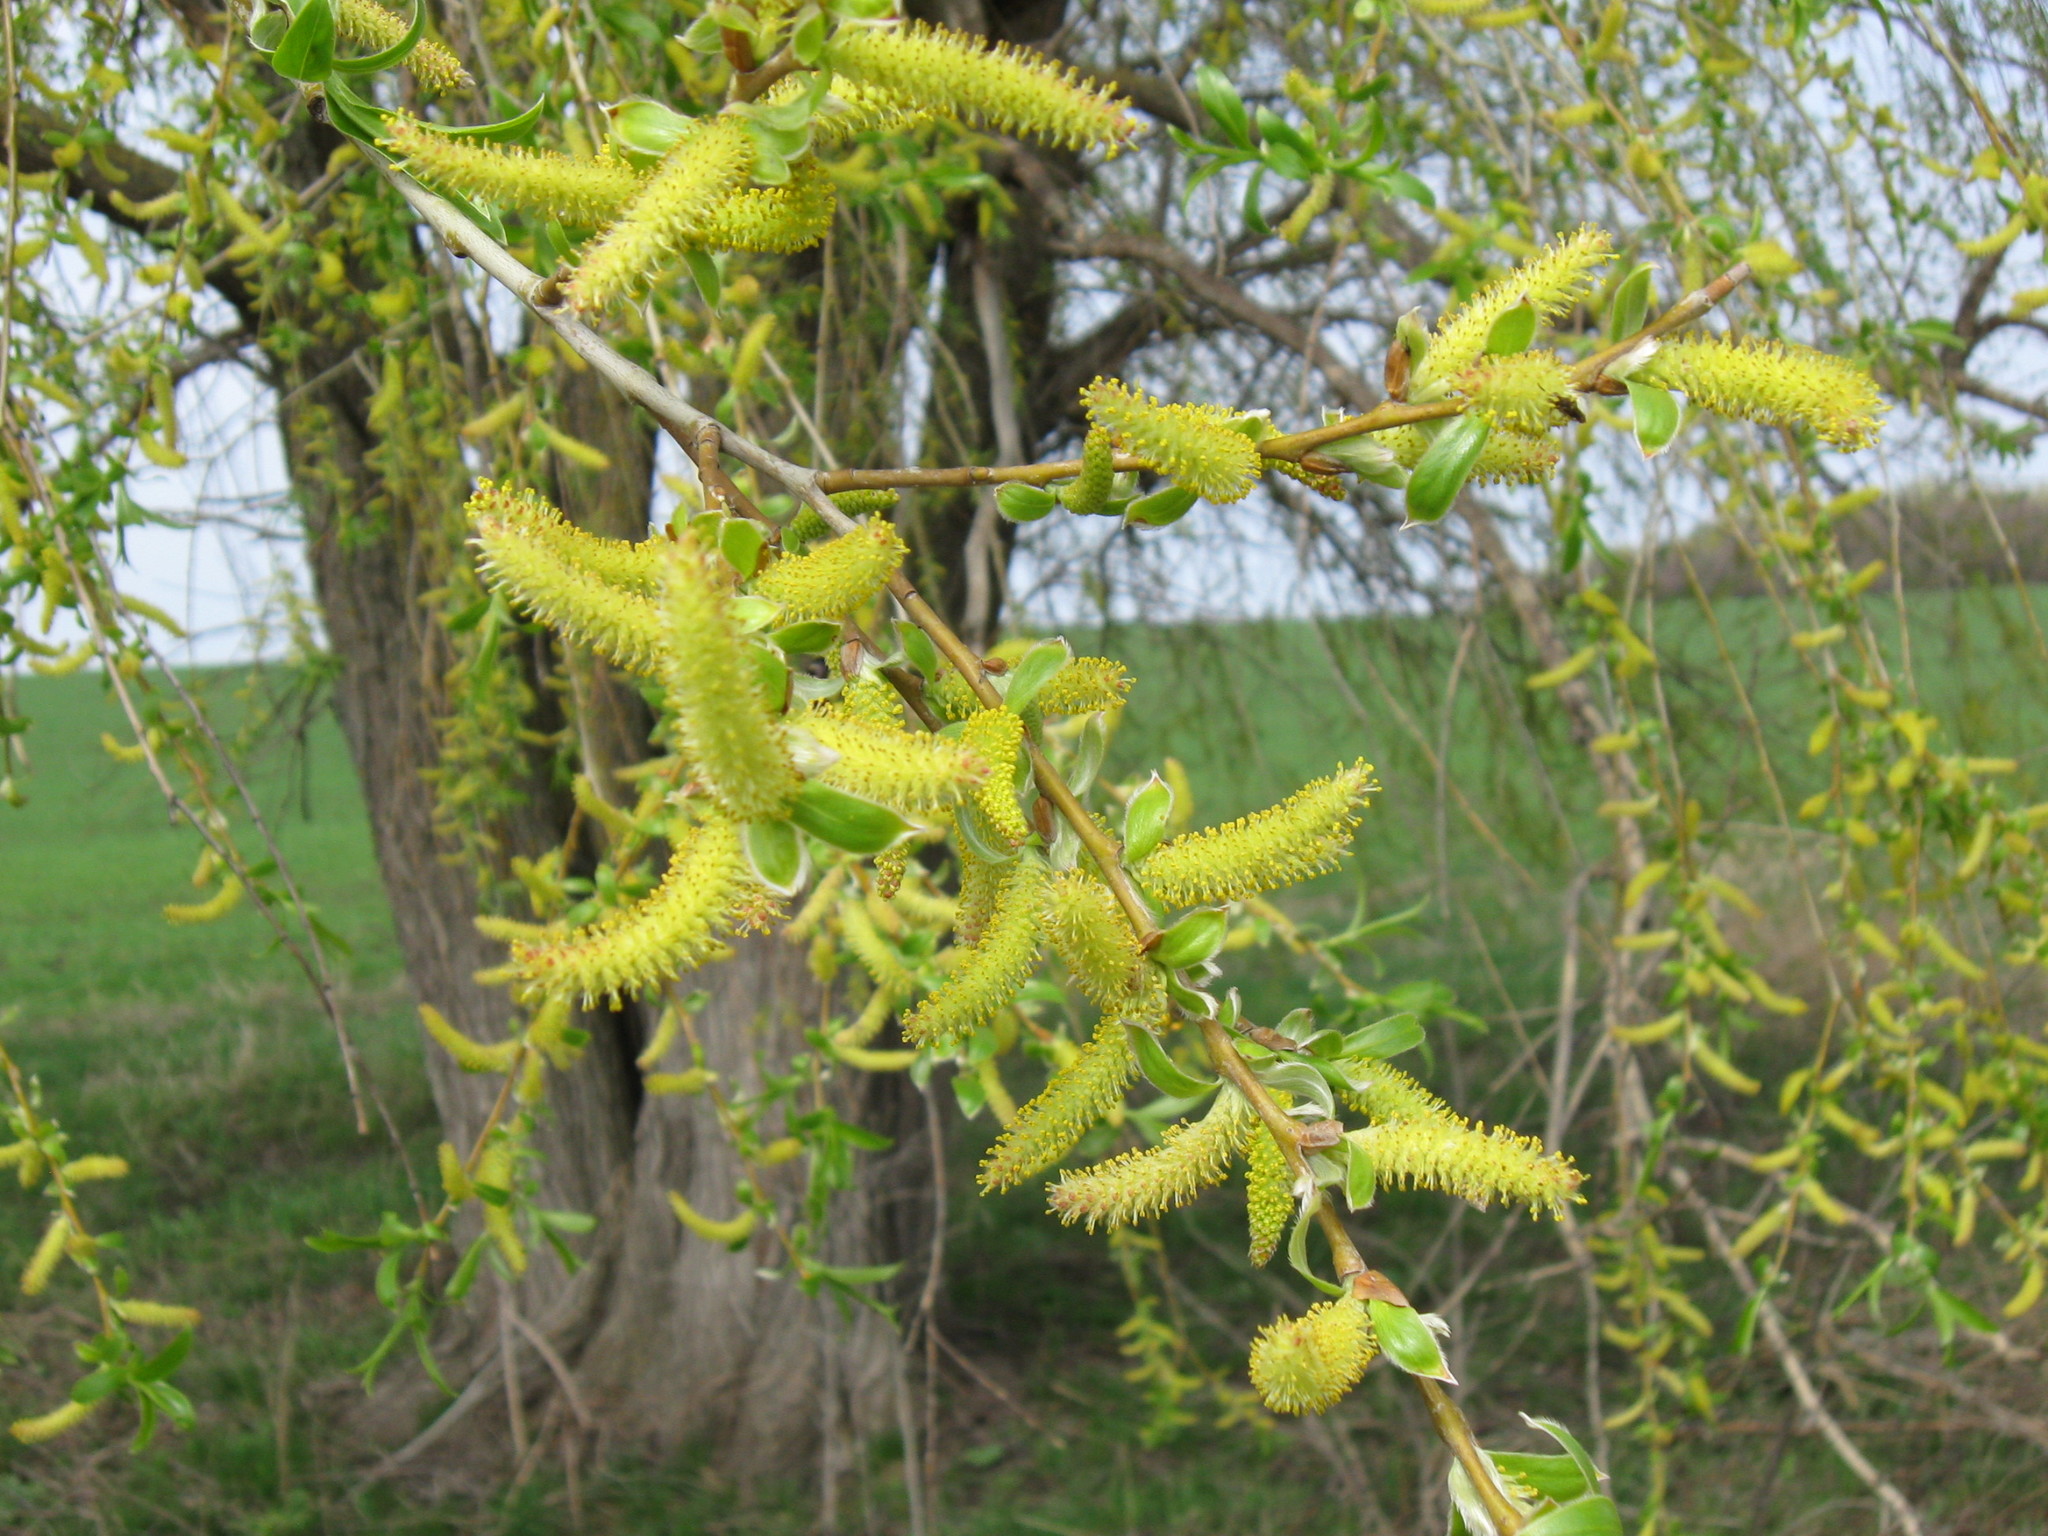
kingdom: Plantae
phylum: Tracheophyta
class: Magnoliopsida
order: Malpighiales
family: Salicaceae
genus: Salix
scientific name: Salix alba
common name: White willow
